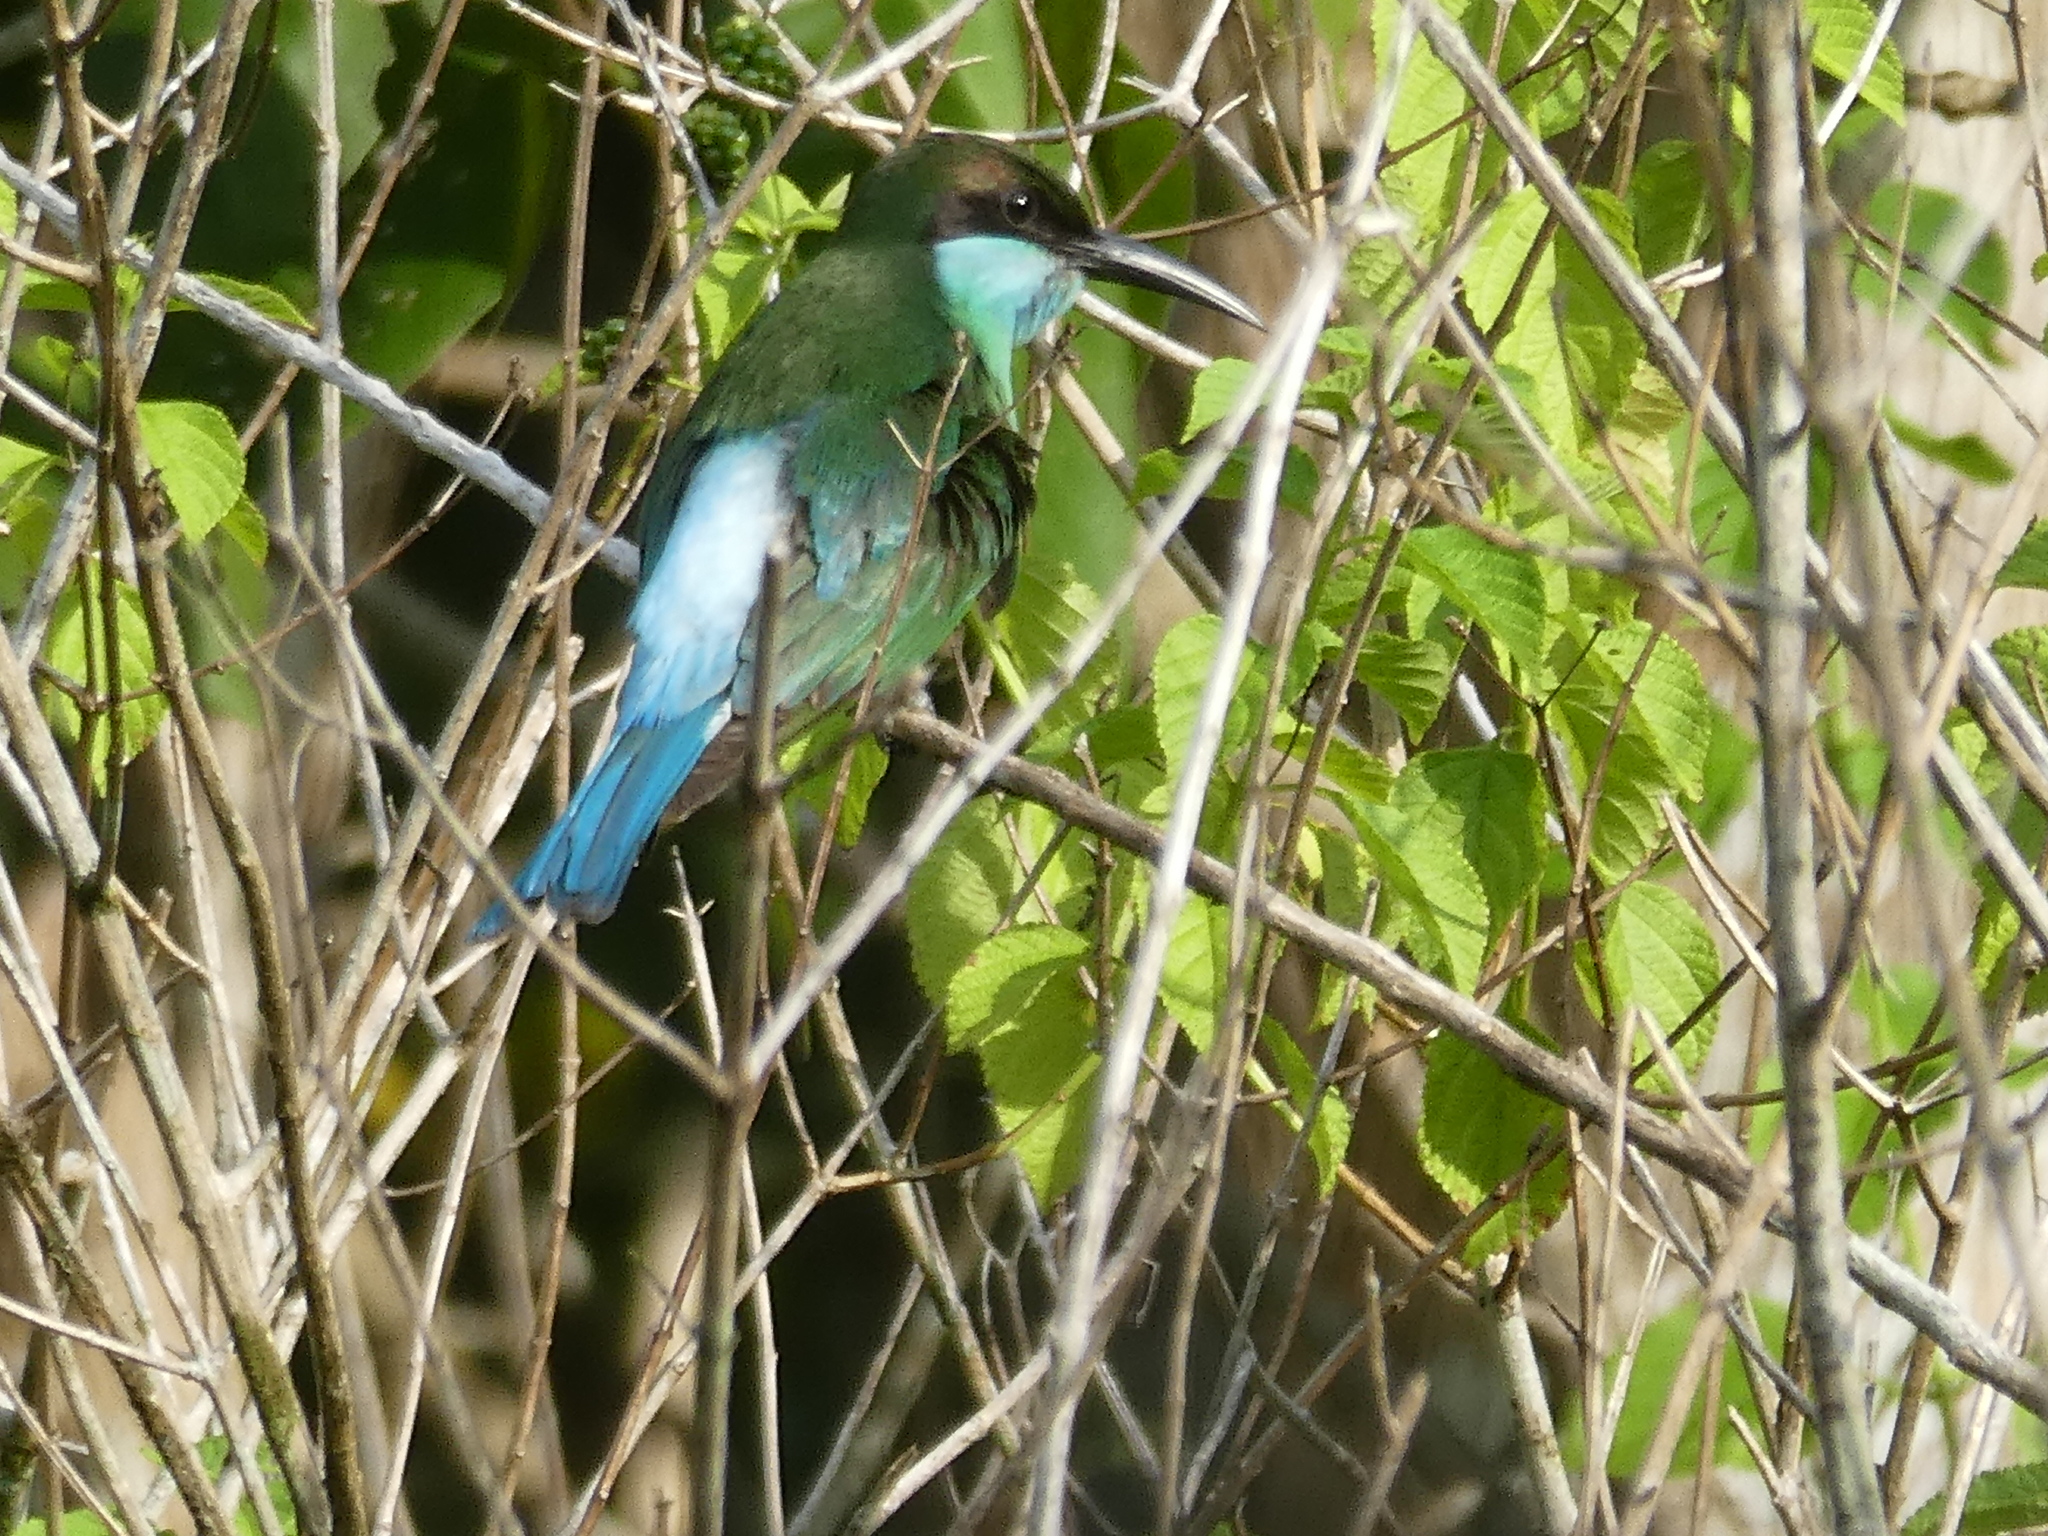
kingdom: Animalia
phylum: Chordata
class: Aves
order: Coraciiformes
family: Meropidae
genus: Merops
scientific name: Merops viridis
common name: Blue-throated bee-eater
